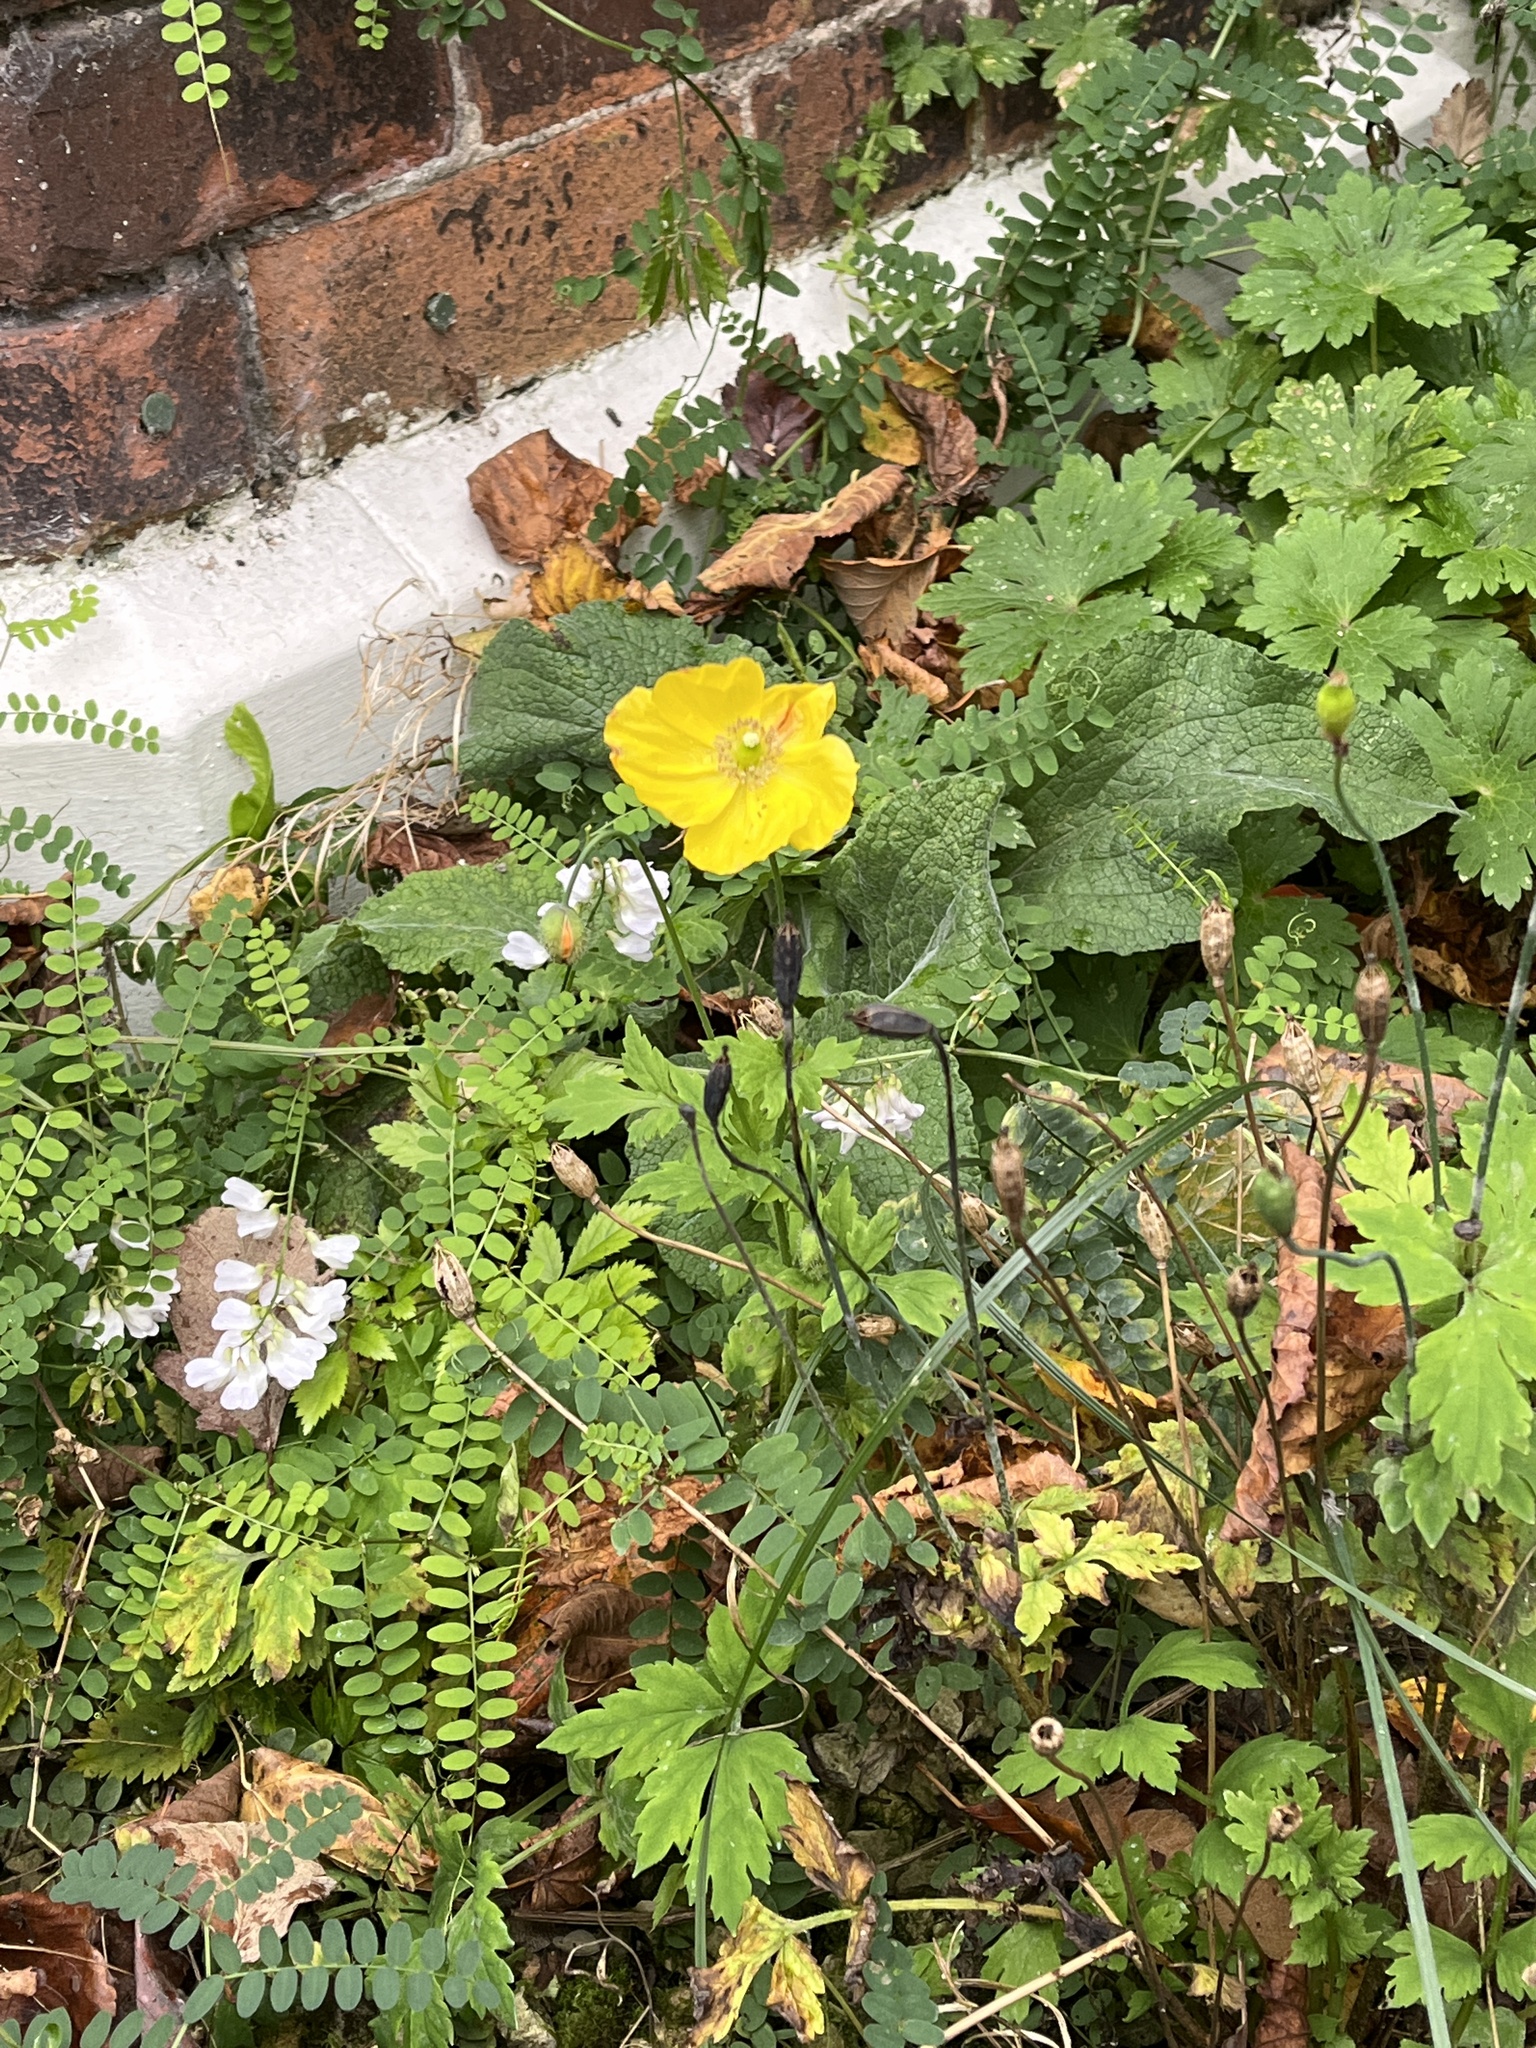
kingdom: Plantae
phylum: Tracheophyta
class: Magnoliopsida
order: Ranunculales
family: Papaveraceae
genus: Papaver
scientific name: Papaver cambricum
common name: Poppy
